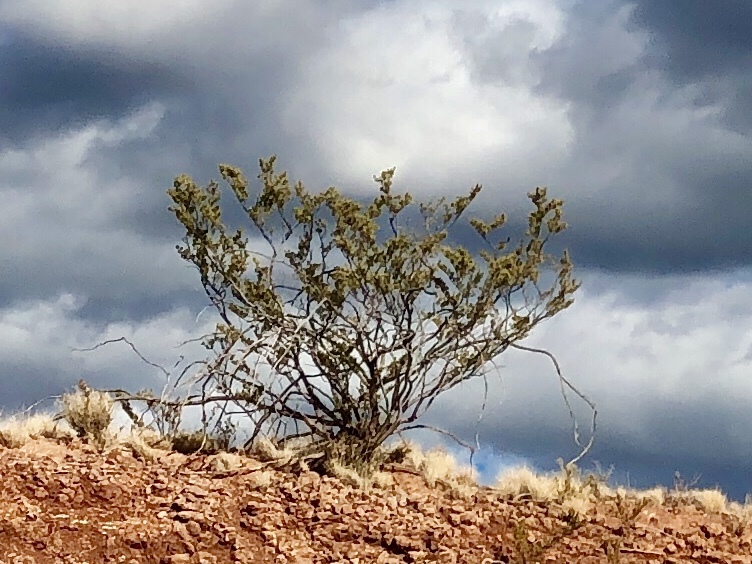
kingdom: Plantae
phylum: Tracheophyta
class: Magnoliopsida
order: Zygophyllales
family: Zygophyllaceae
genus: Larrea
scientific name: Larrea tridentata
